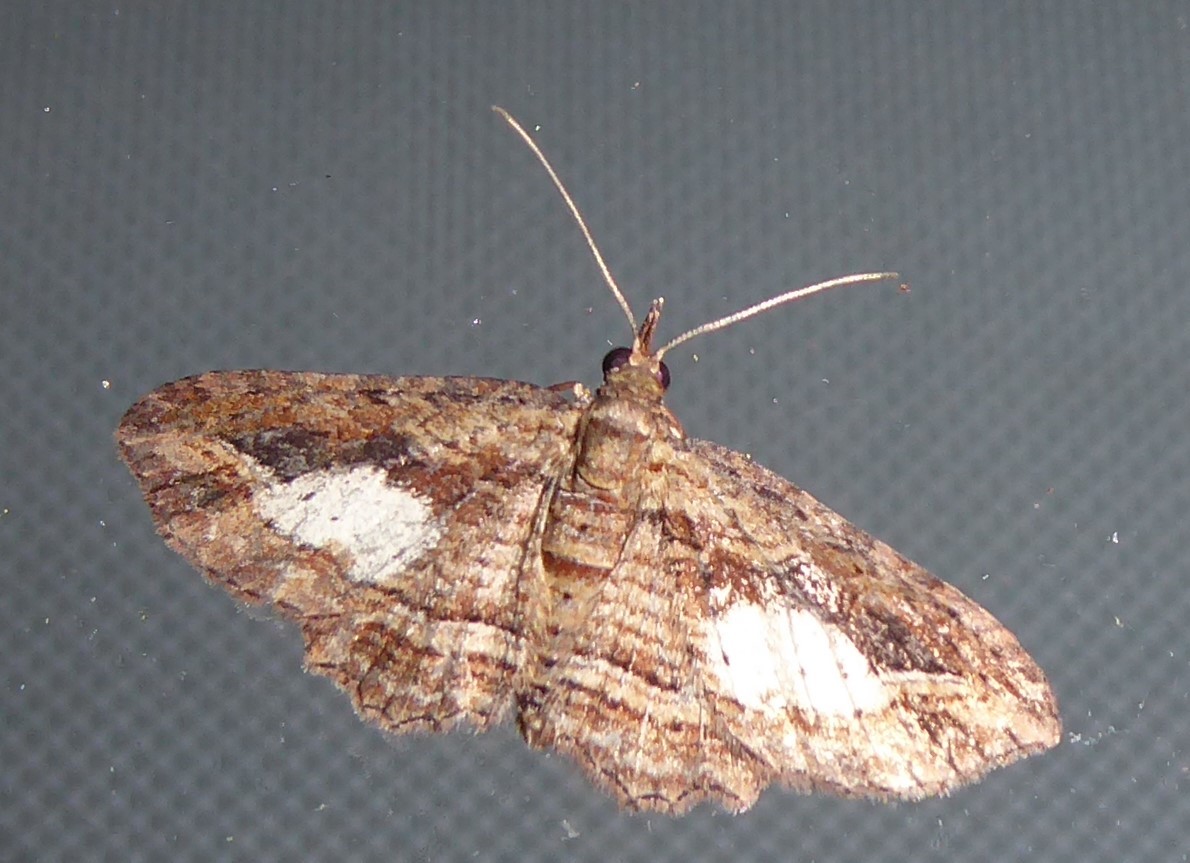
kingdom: Animalia
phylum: Arthropoda
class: Insecta
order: Lepidoptera
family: Geometridae
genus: Chloroclystis
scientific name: Chloroclystis filata
